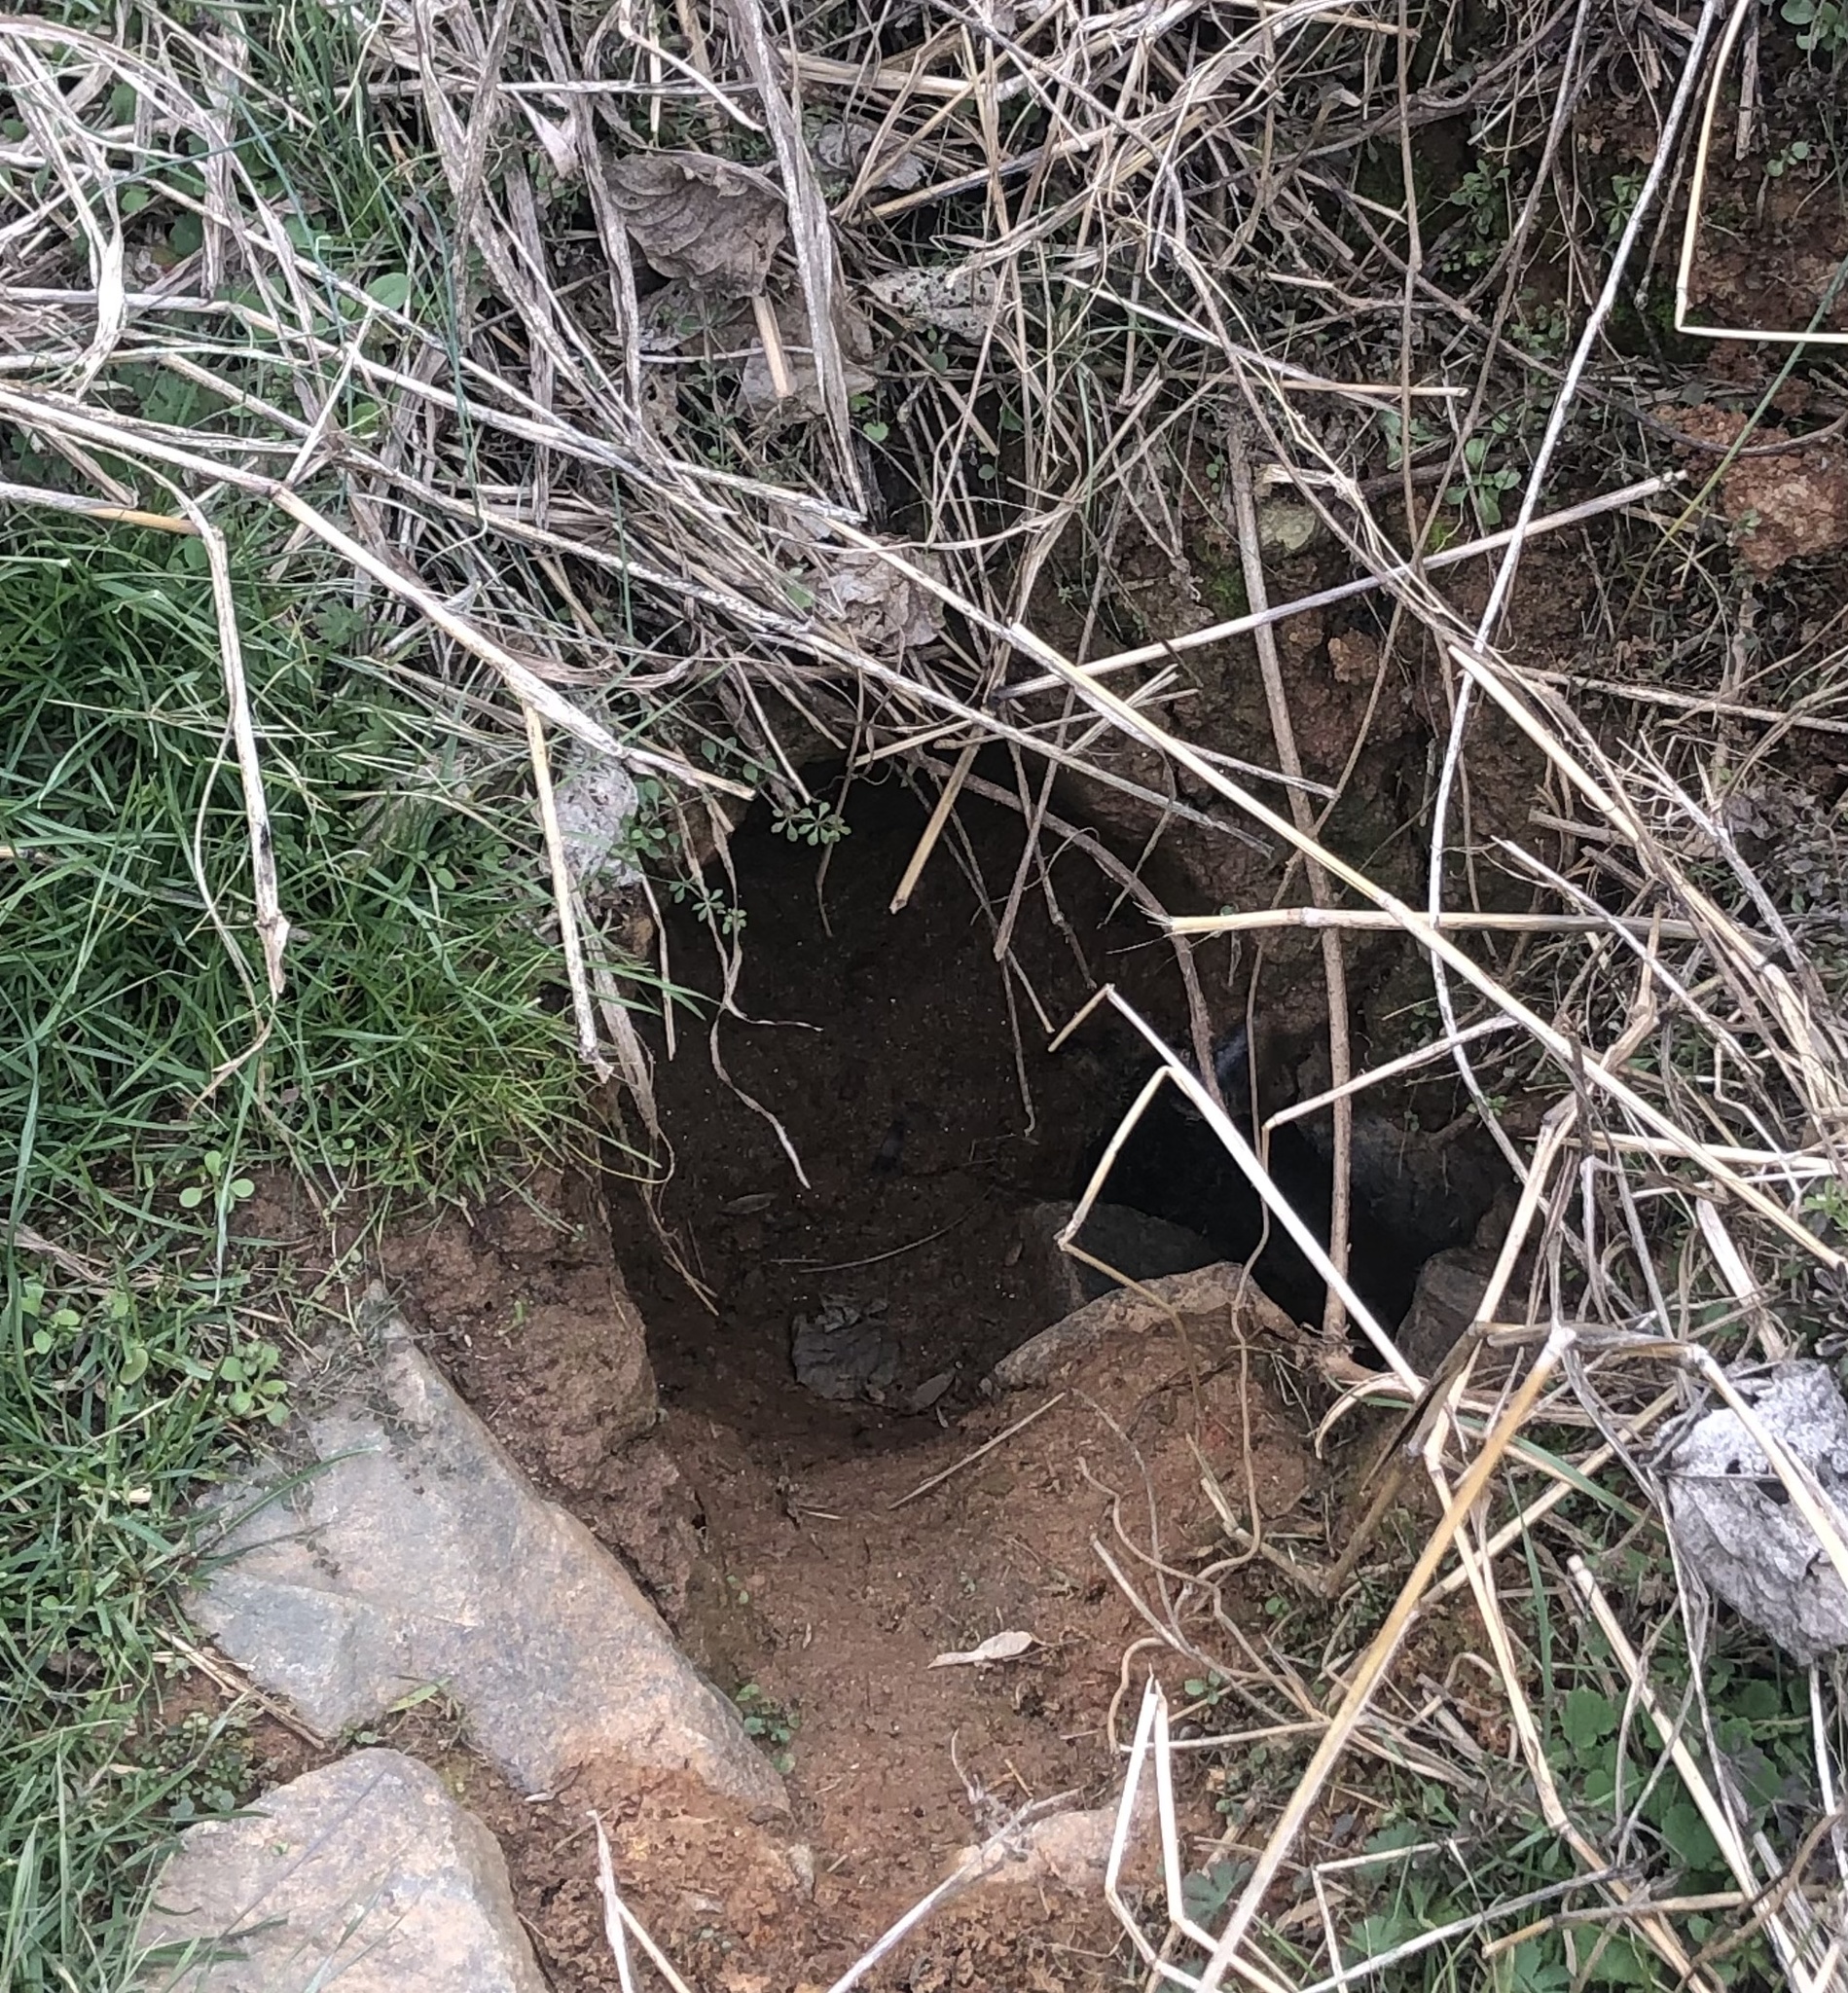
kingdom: Animalia
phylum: Chordata
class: Mammalia
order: Rodentia
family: Sciuridae
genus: Marmota
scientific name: Marmota monax
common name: Groundhog
